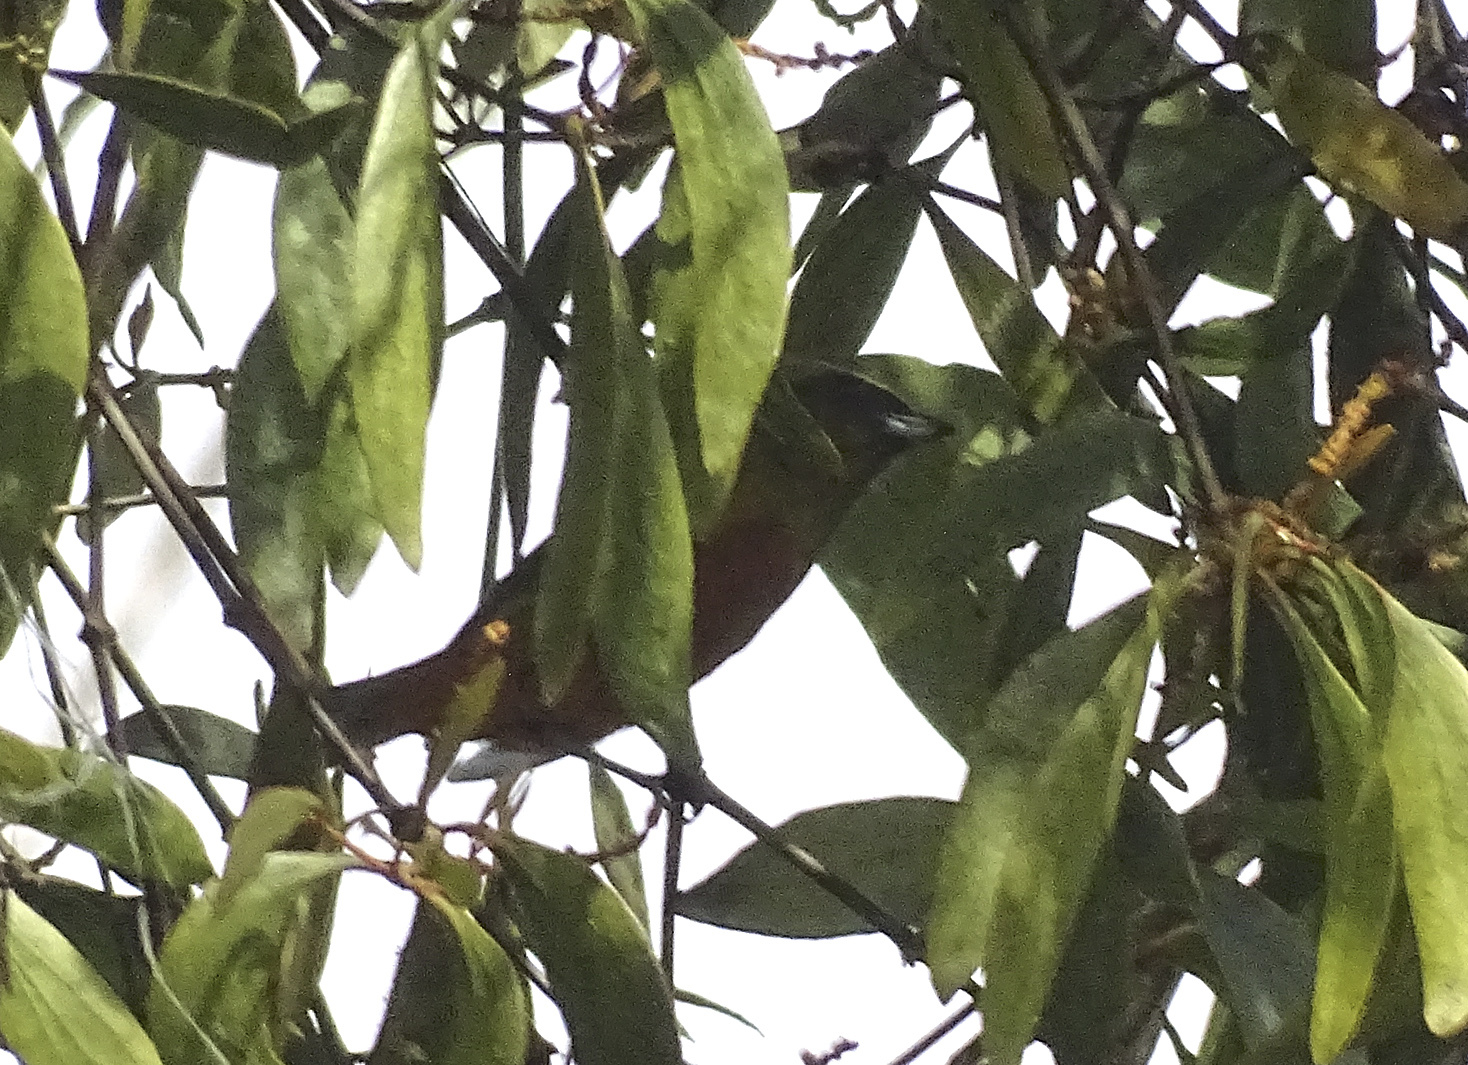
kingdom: Animalia
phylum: Chordata
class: Aves
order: Passeriformes
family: Fringillidae
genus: Euphonia
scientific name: Euphonia gouldi
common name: Olive-backed euphonia
